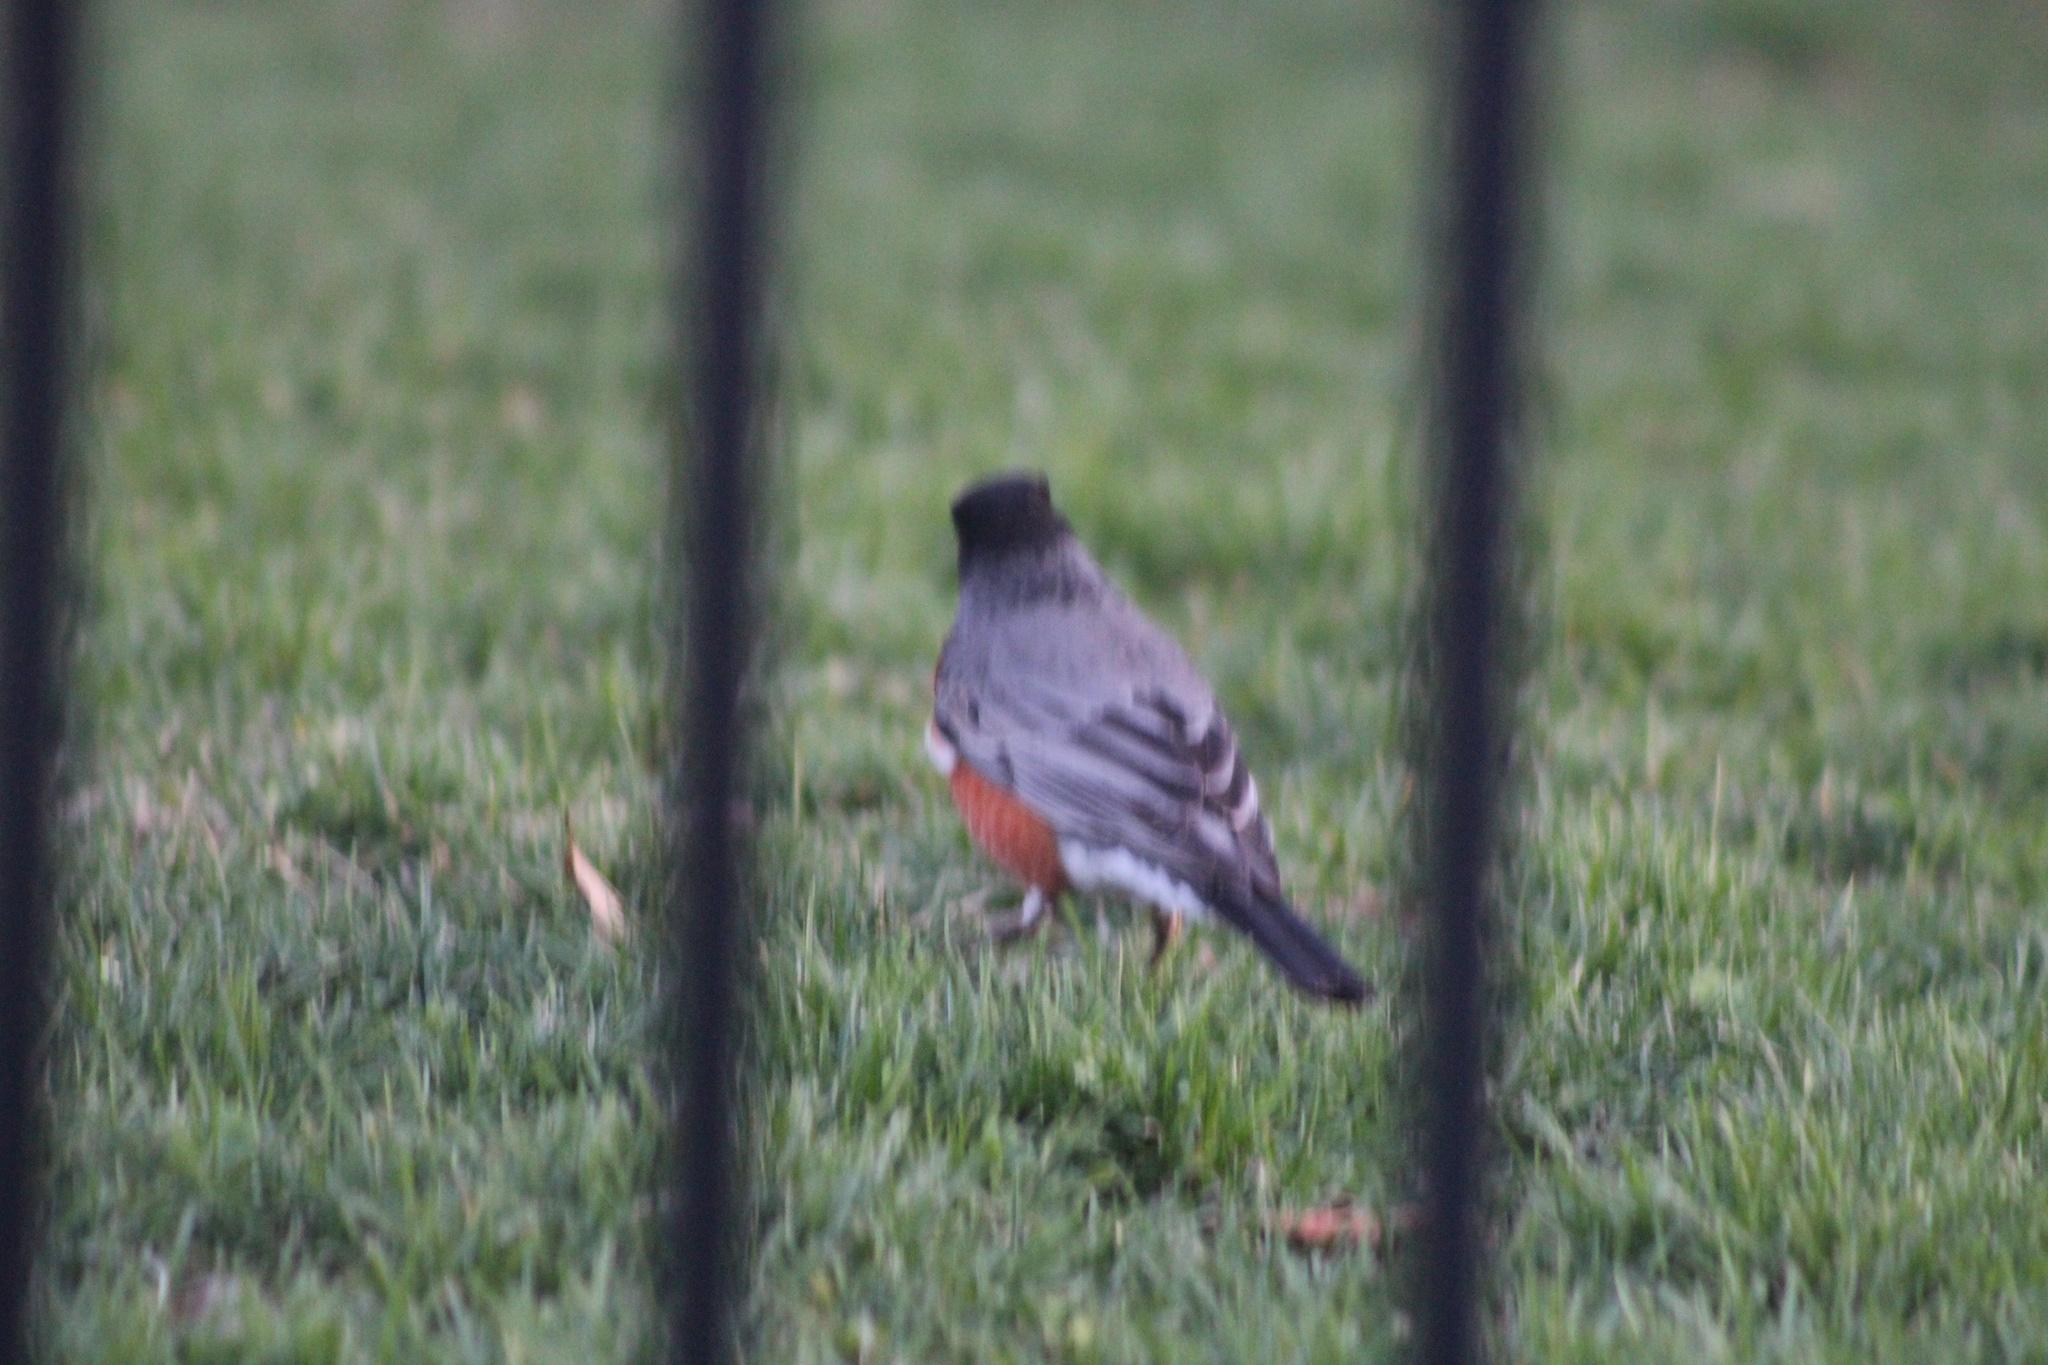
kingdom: Animalia
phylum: Chordata
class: Aves
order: Passeriformes
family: Turdidae
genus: Turdus
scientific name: Turdus migratorius
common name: American robin
